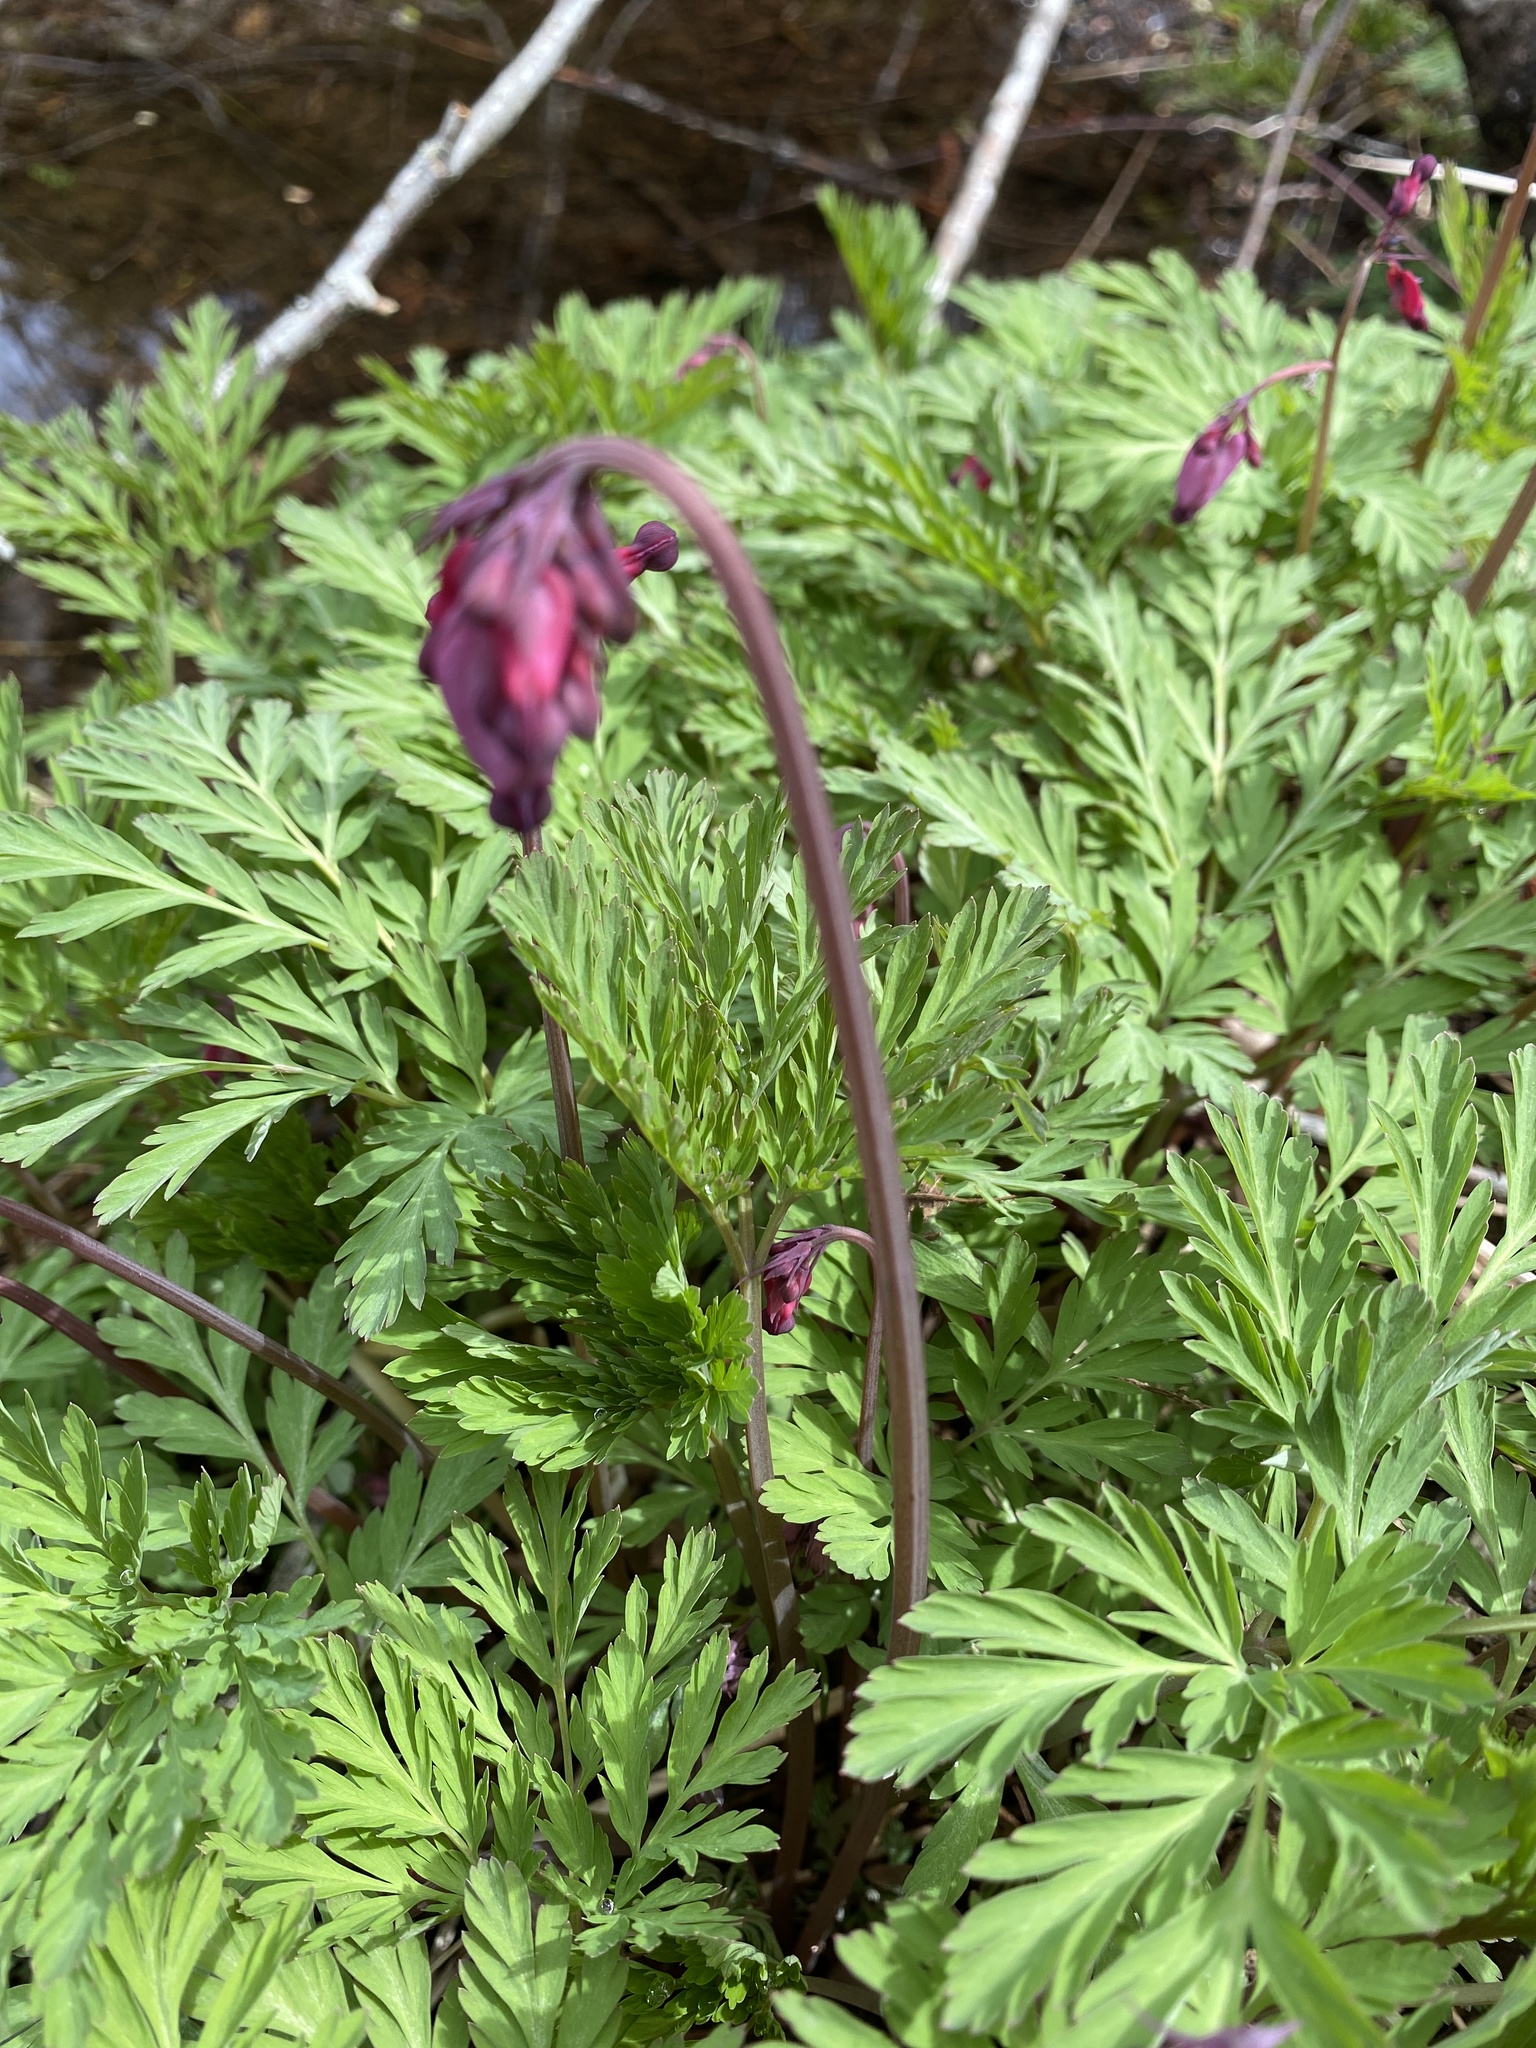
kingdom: Plantae
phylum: Tracheophyta
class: Magnoliopsida
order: Ranunculales
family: Papaveraceae
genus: Dicentra
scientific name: Dicentra formosa
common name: Bleeding-heart
